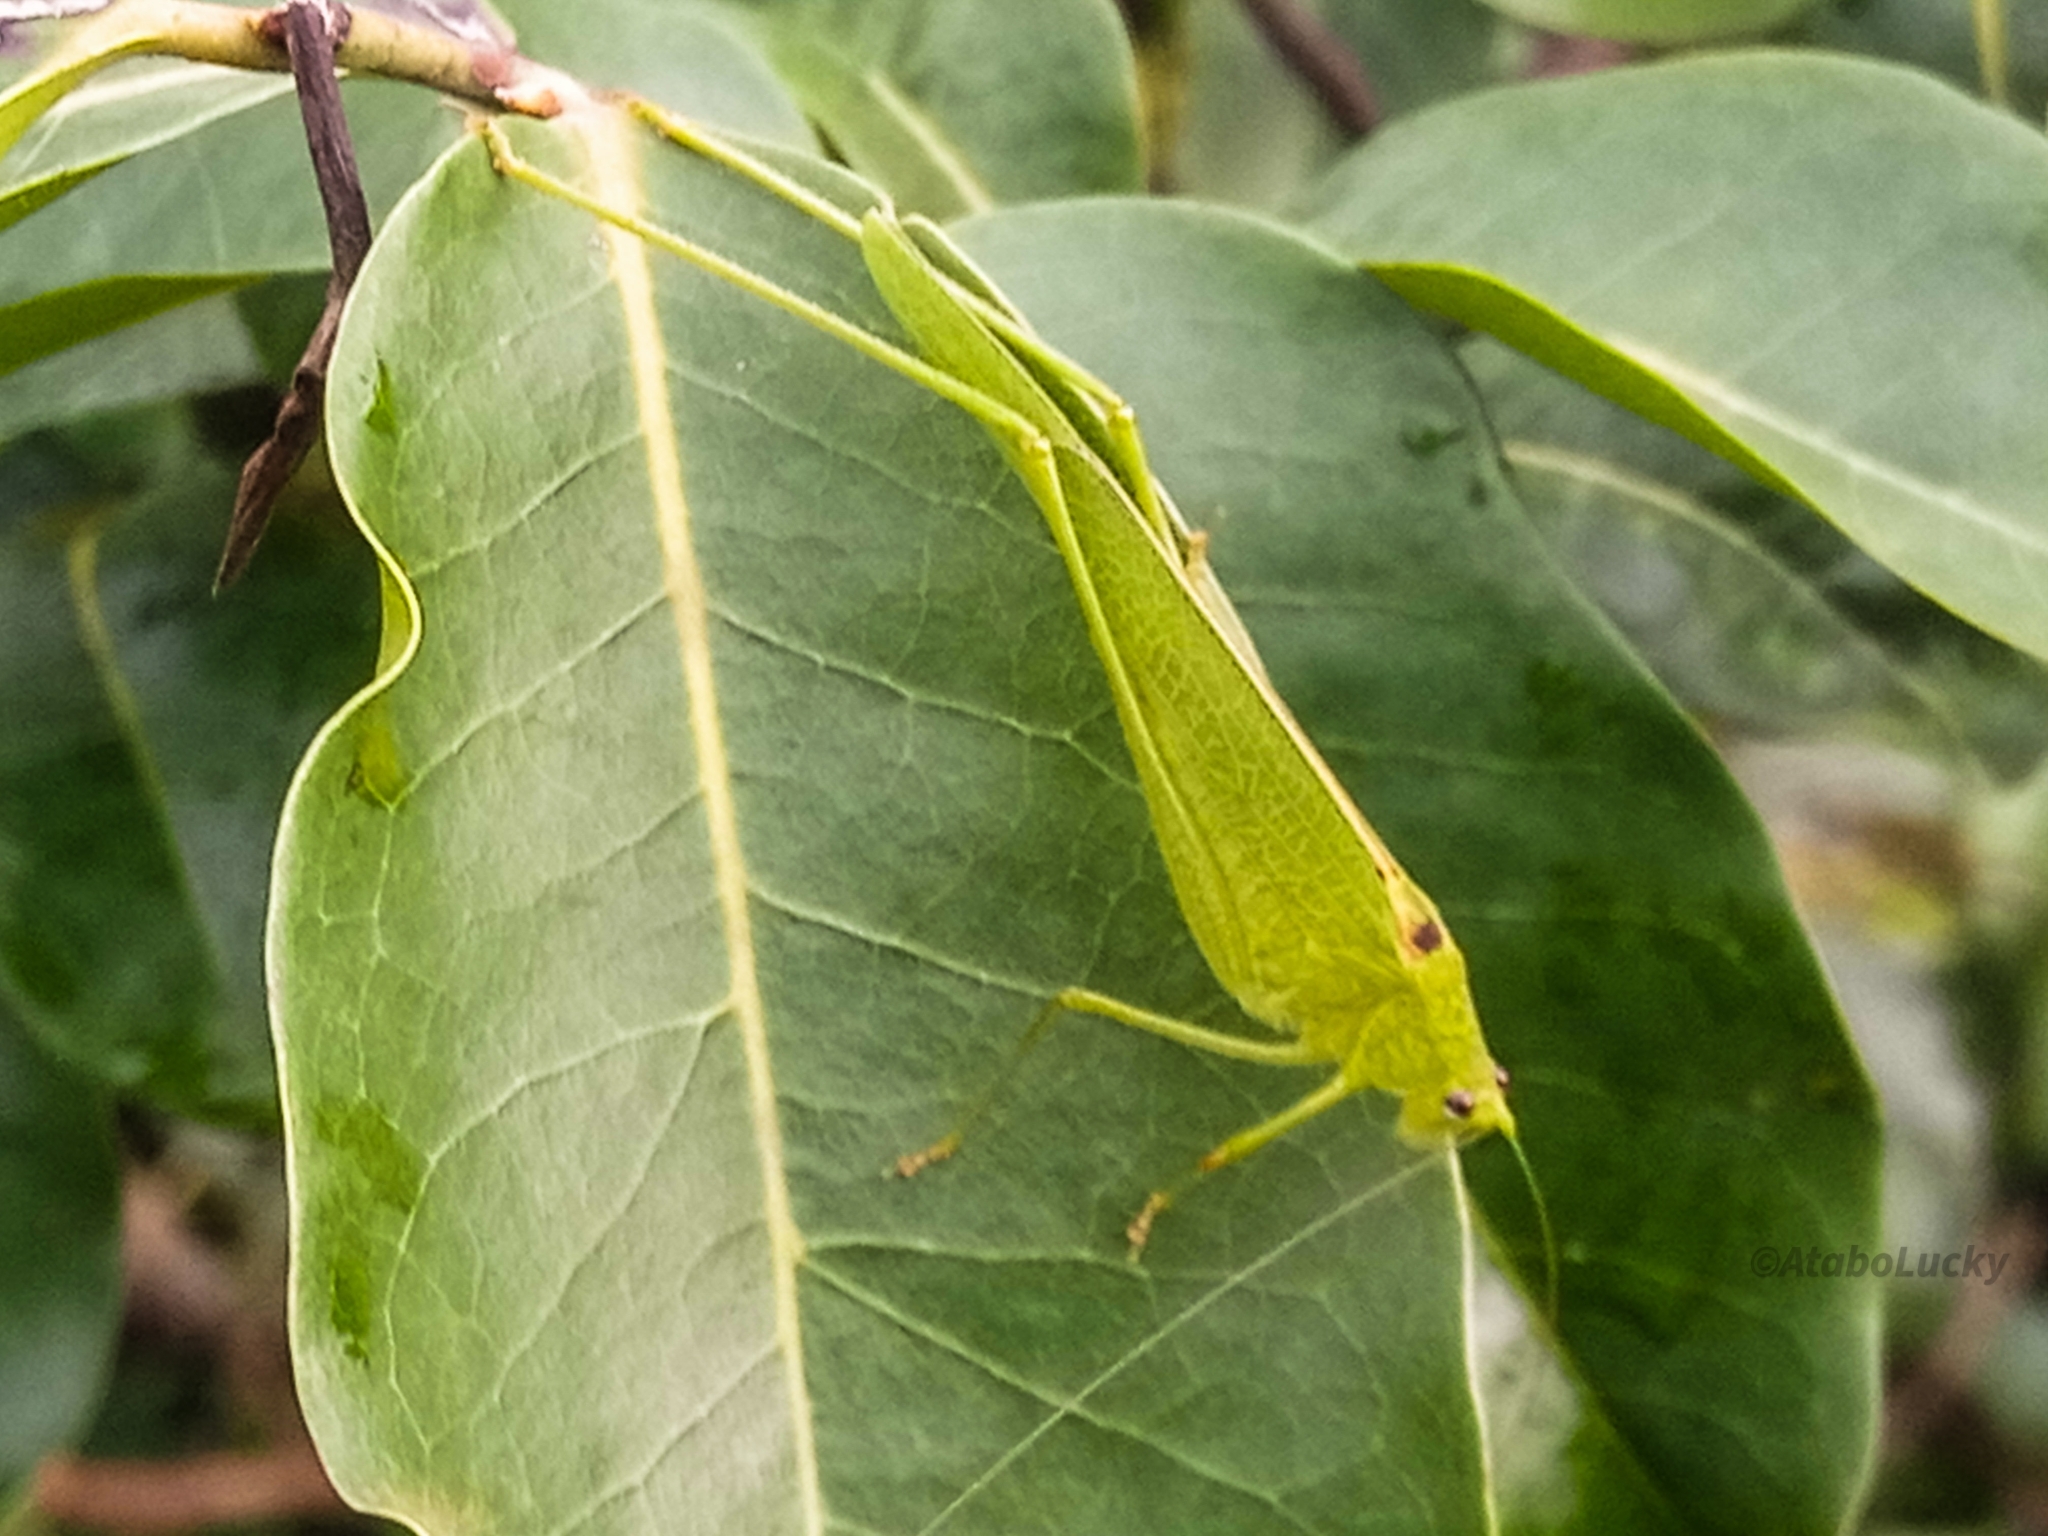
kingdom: Animalia
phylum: Arthropoda
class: Insecta
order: Orthoptera
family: Tettigoniidae
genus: Phaneroptera
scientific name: Phaneroptera sparsa
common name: Sickle-bearing leaf katydid
